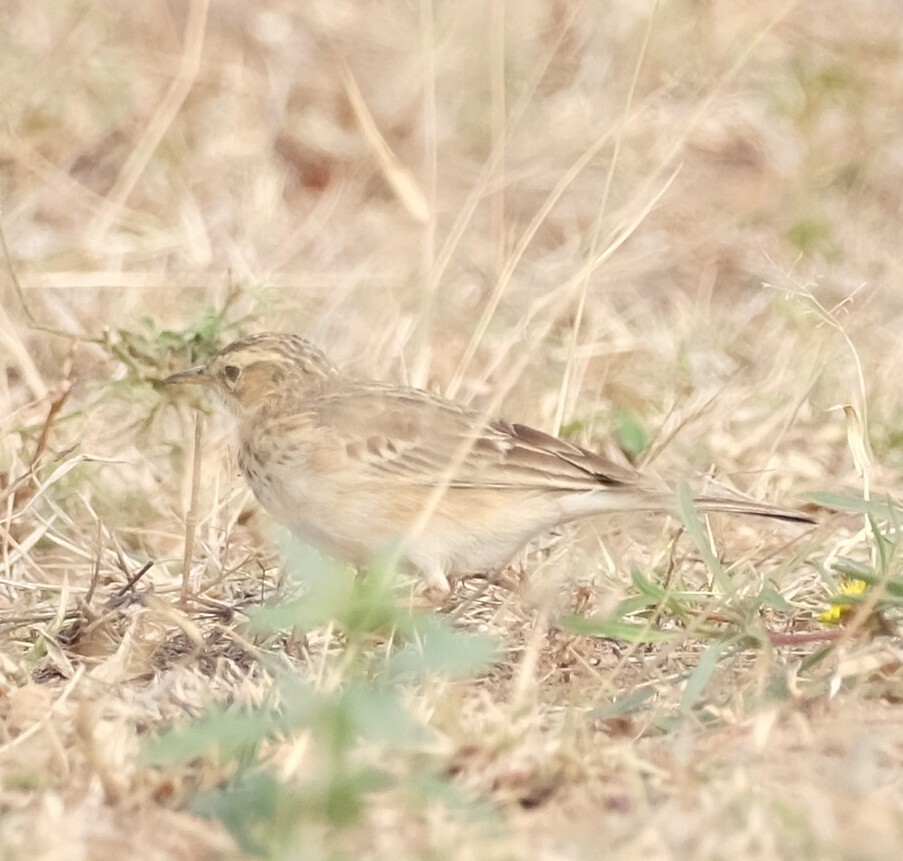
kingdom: Animalia
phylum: Chordata
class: Aves
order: Passeriformes
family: Motacillidae
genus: Anthus
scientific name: Anthus cinnamomeus
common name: African pipit
